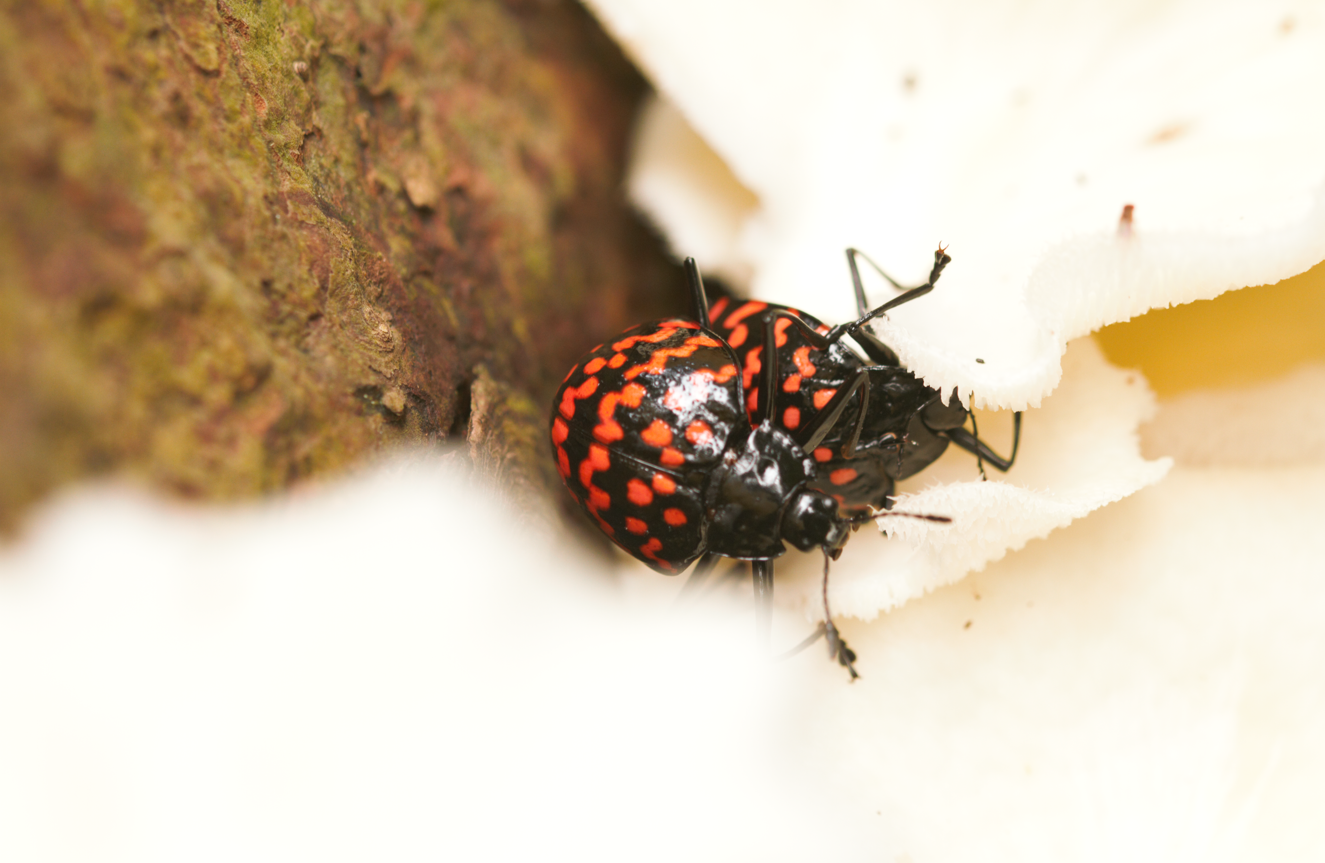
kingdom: Animalia
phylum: Arthropoda
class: Insecta
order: Coleoptera
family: Erotylidae
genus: Erotylus
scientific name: Erotylus giganteus
